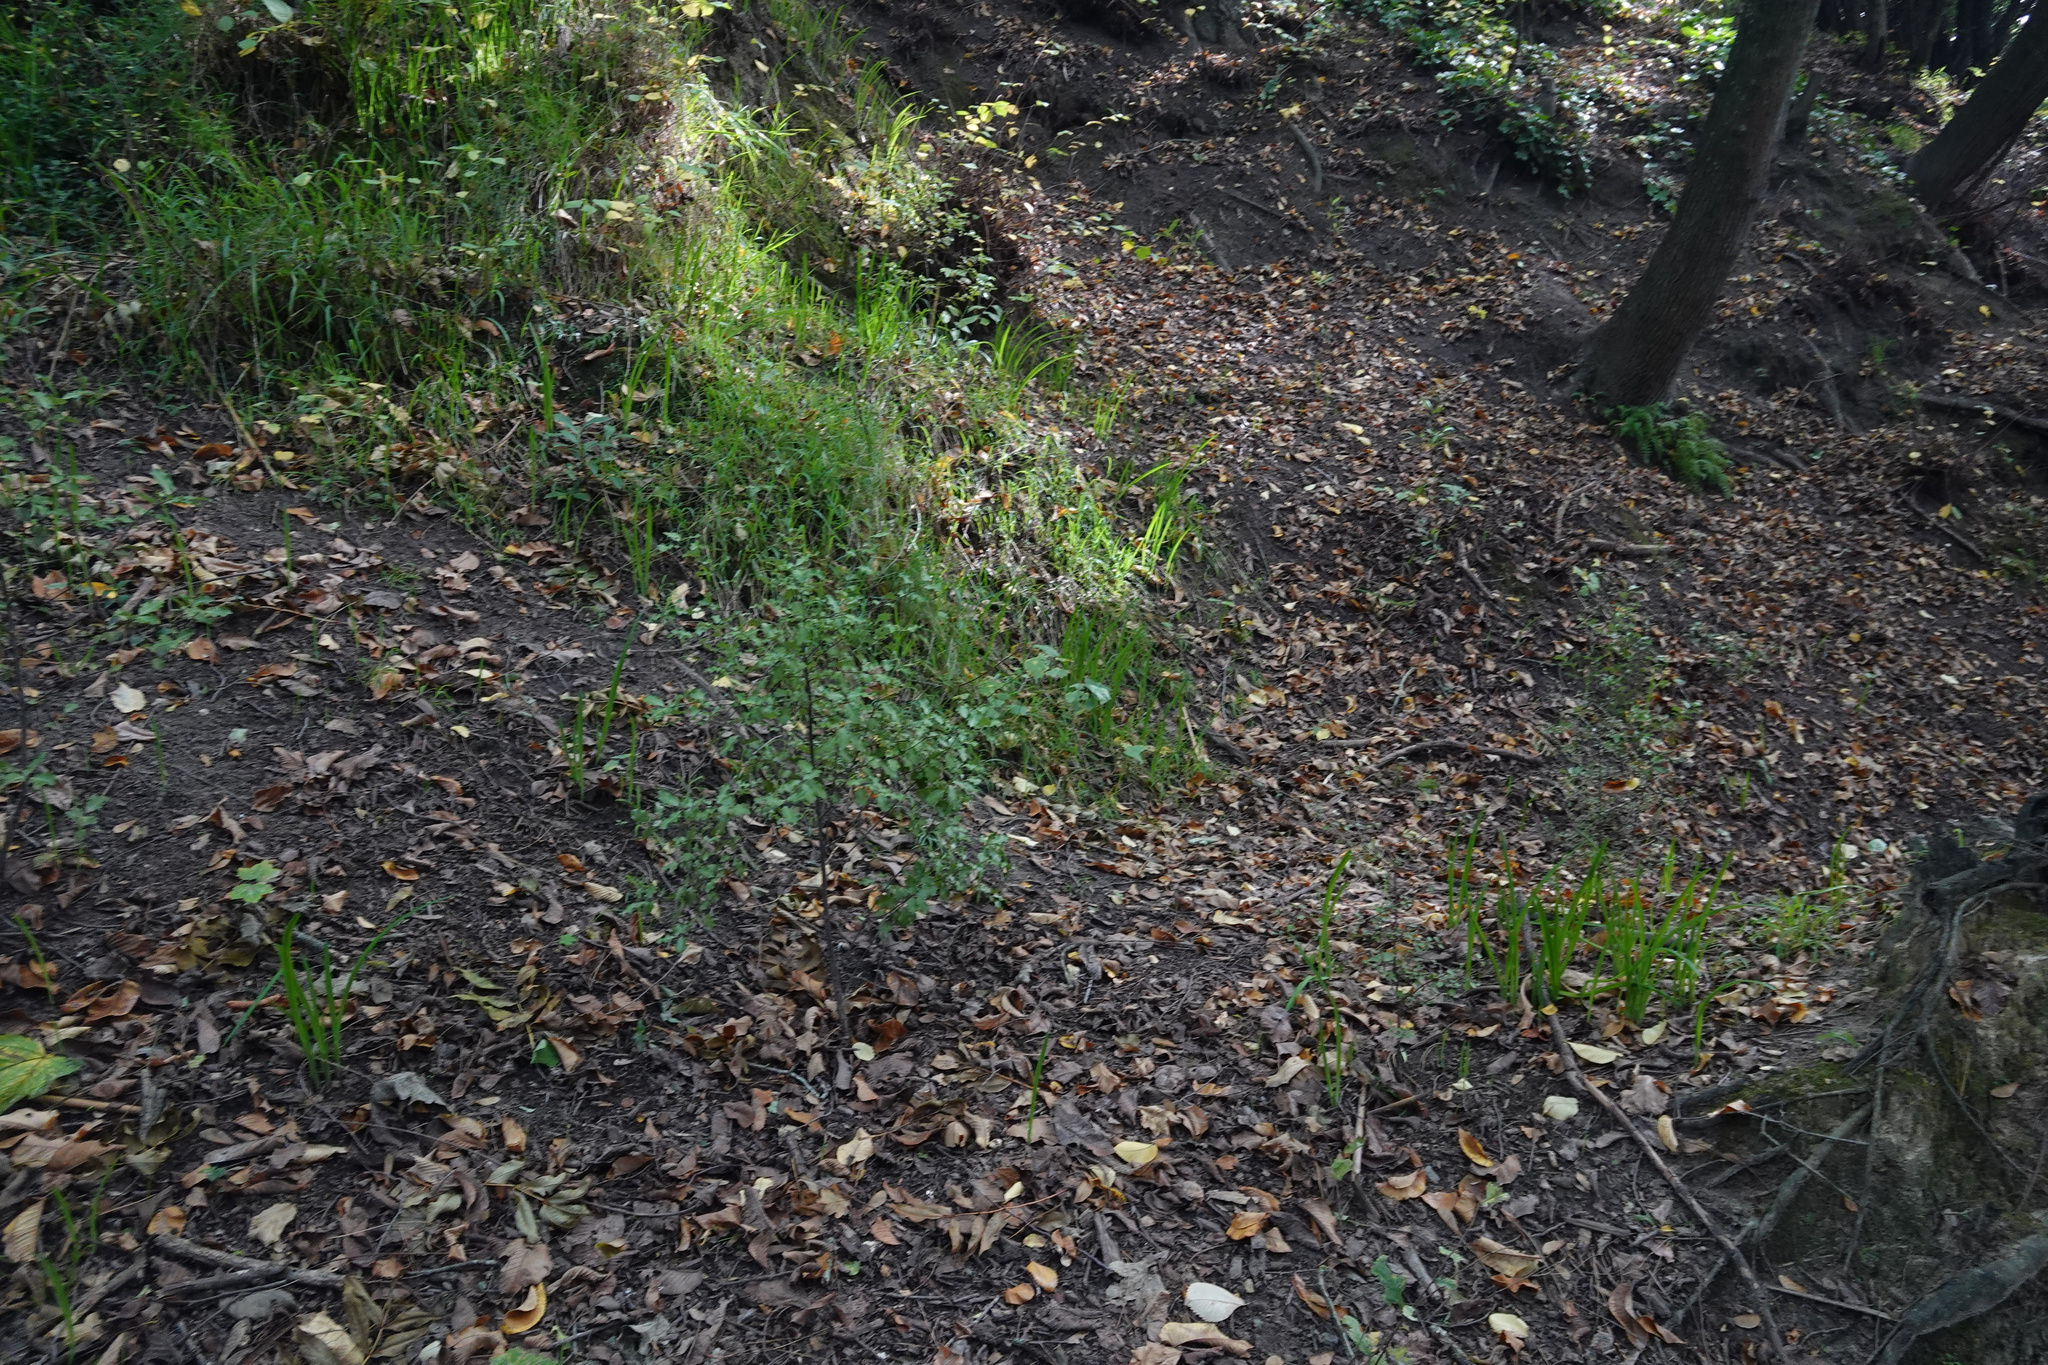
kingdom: Plantae
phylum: Tracheophyta
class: Magnoliopsida
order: Apiales
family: Pittosporaceae
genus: Pittosporum
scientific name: Pittosporum tenuifolium
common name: Kohuhu
